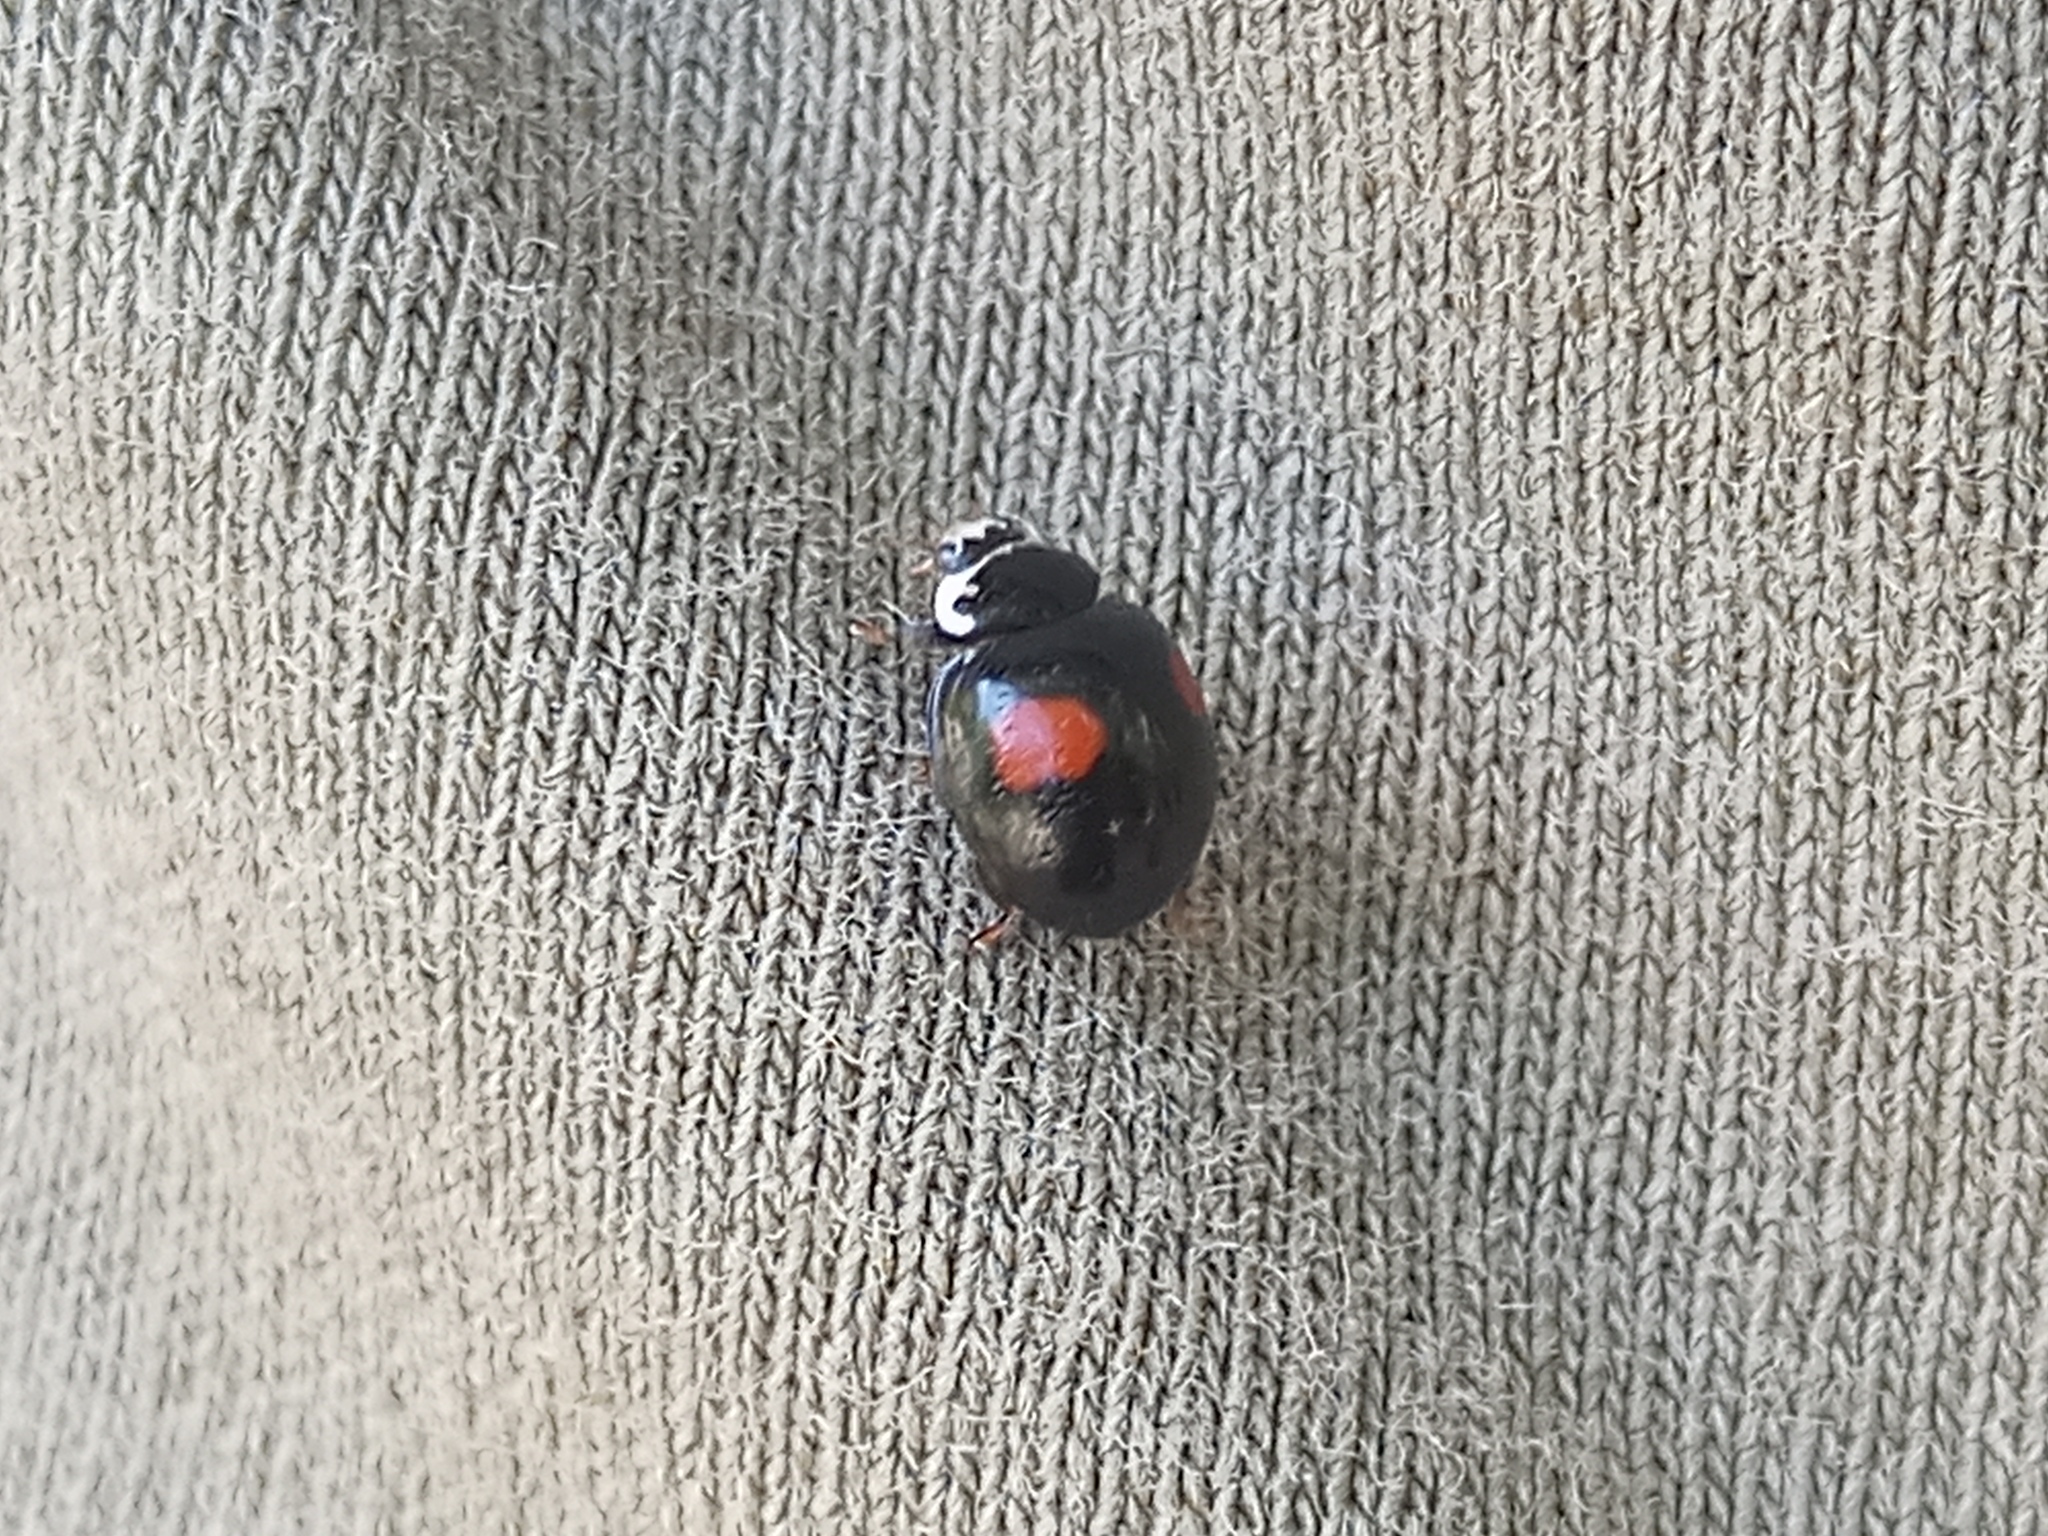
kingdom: Animalia
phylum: Arthropoda
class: Insecta
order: Coleoptera
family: Coccinellidae
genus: Olla
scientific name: Olla v-nigrum
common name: Ashy gray lady beetle
